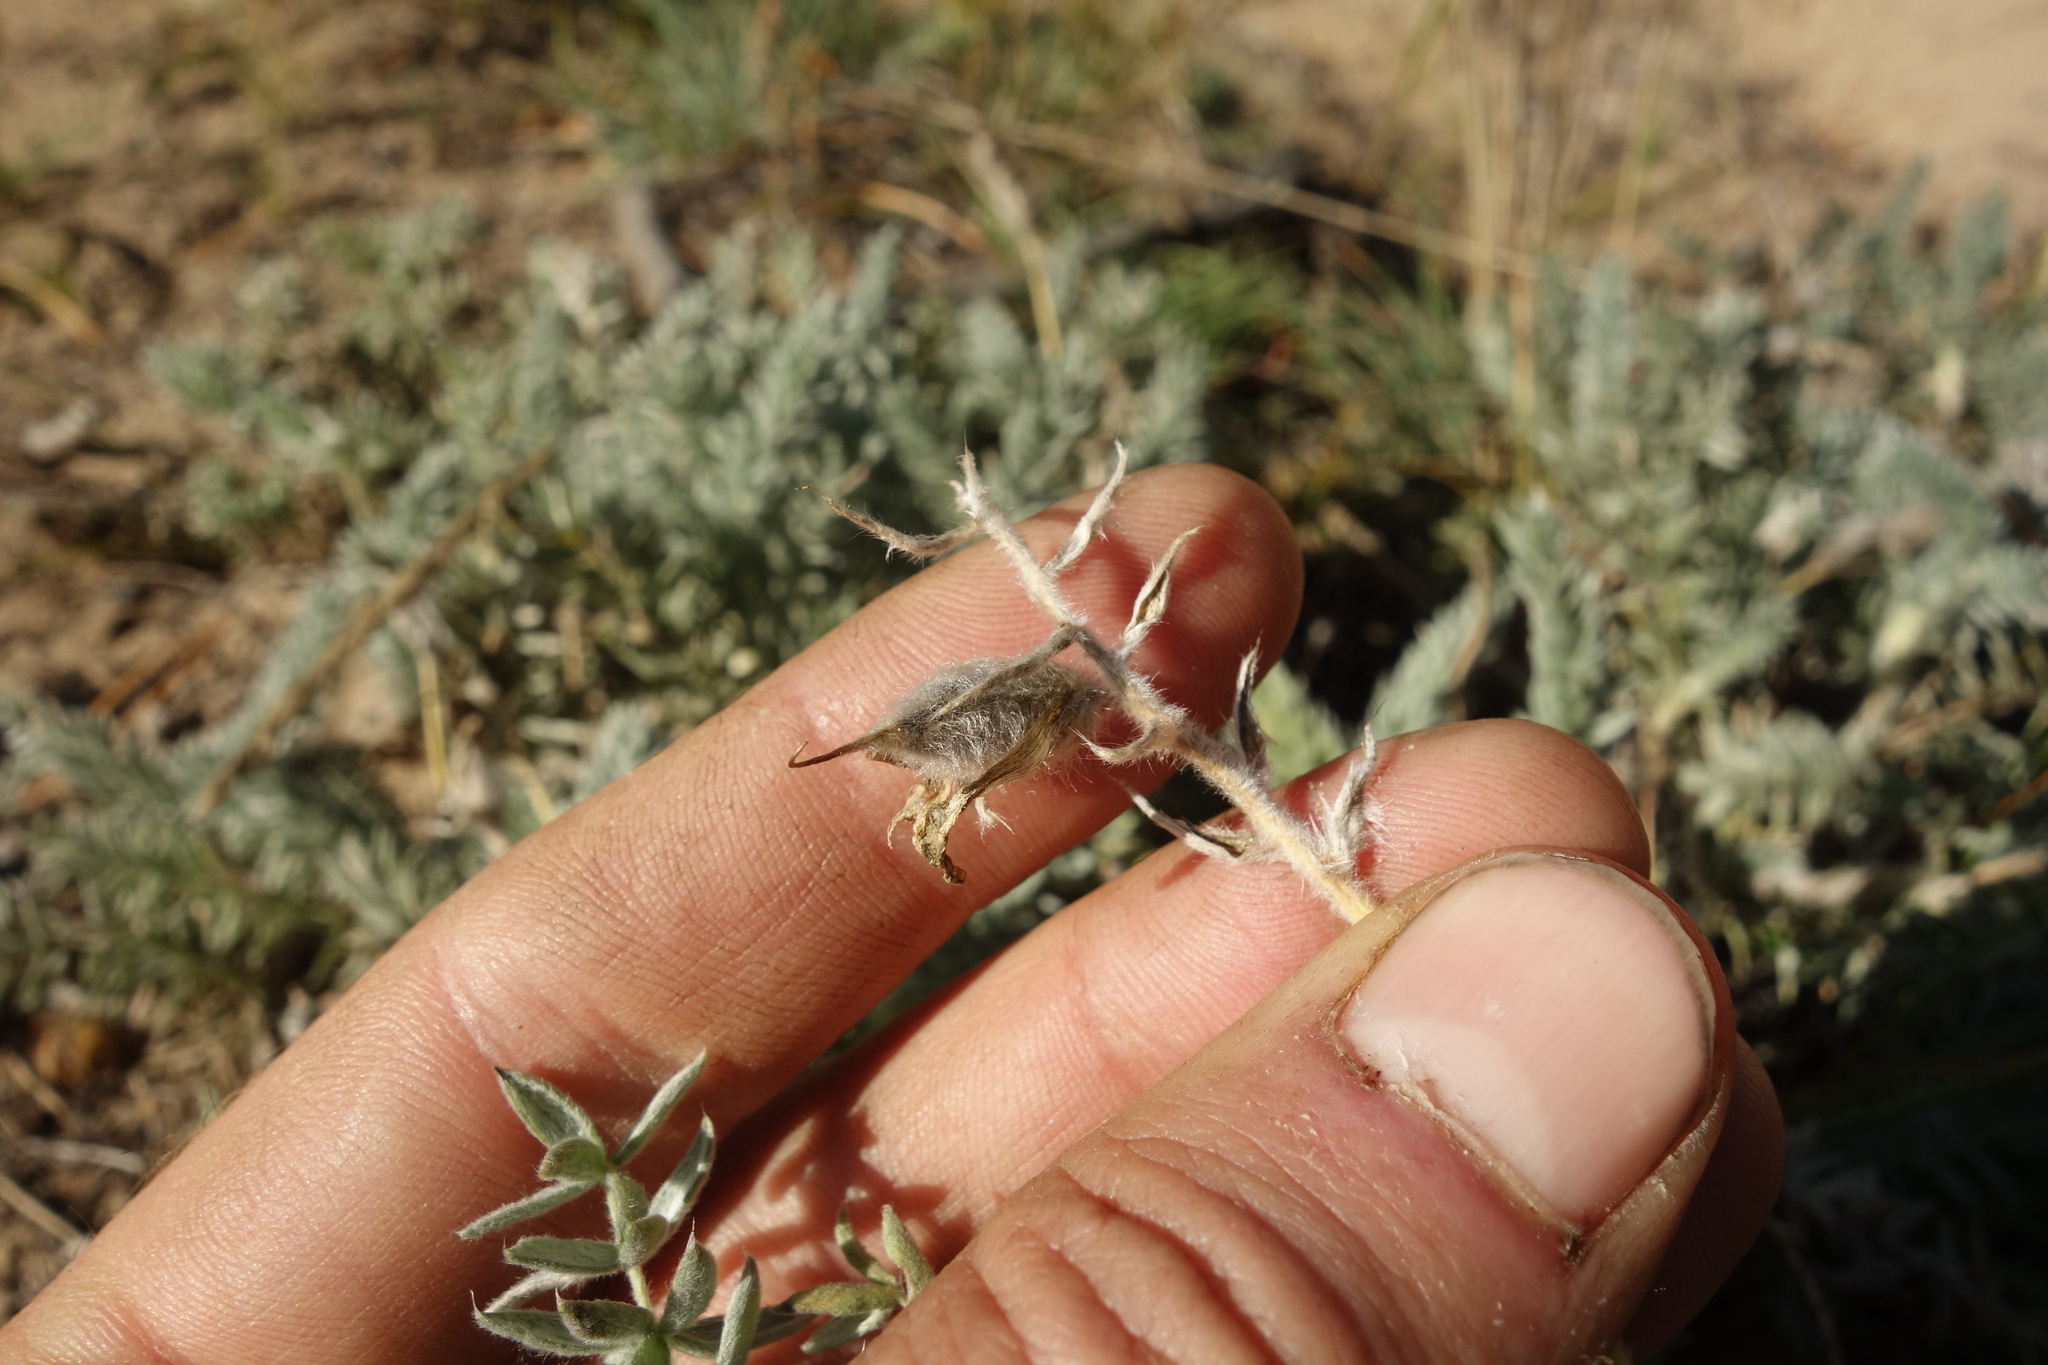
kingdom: Plantae
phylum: Tracheophyta
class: Magnoliopsida
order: Fabales
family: Fabaceae
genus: Oxytropis
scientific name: Oxytropis lanata
